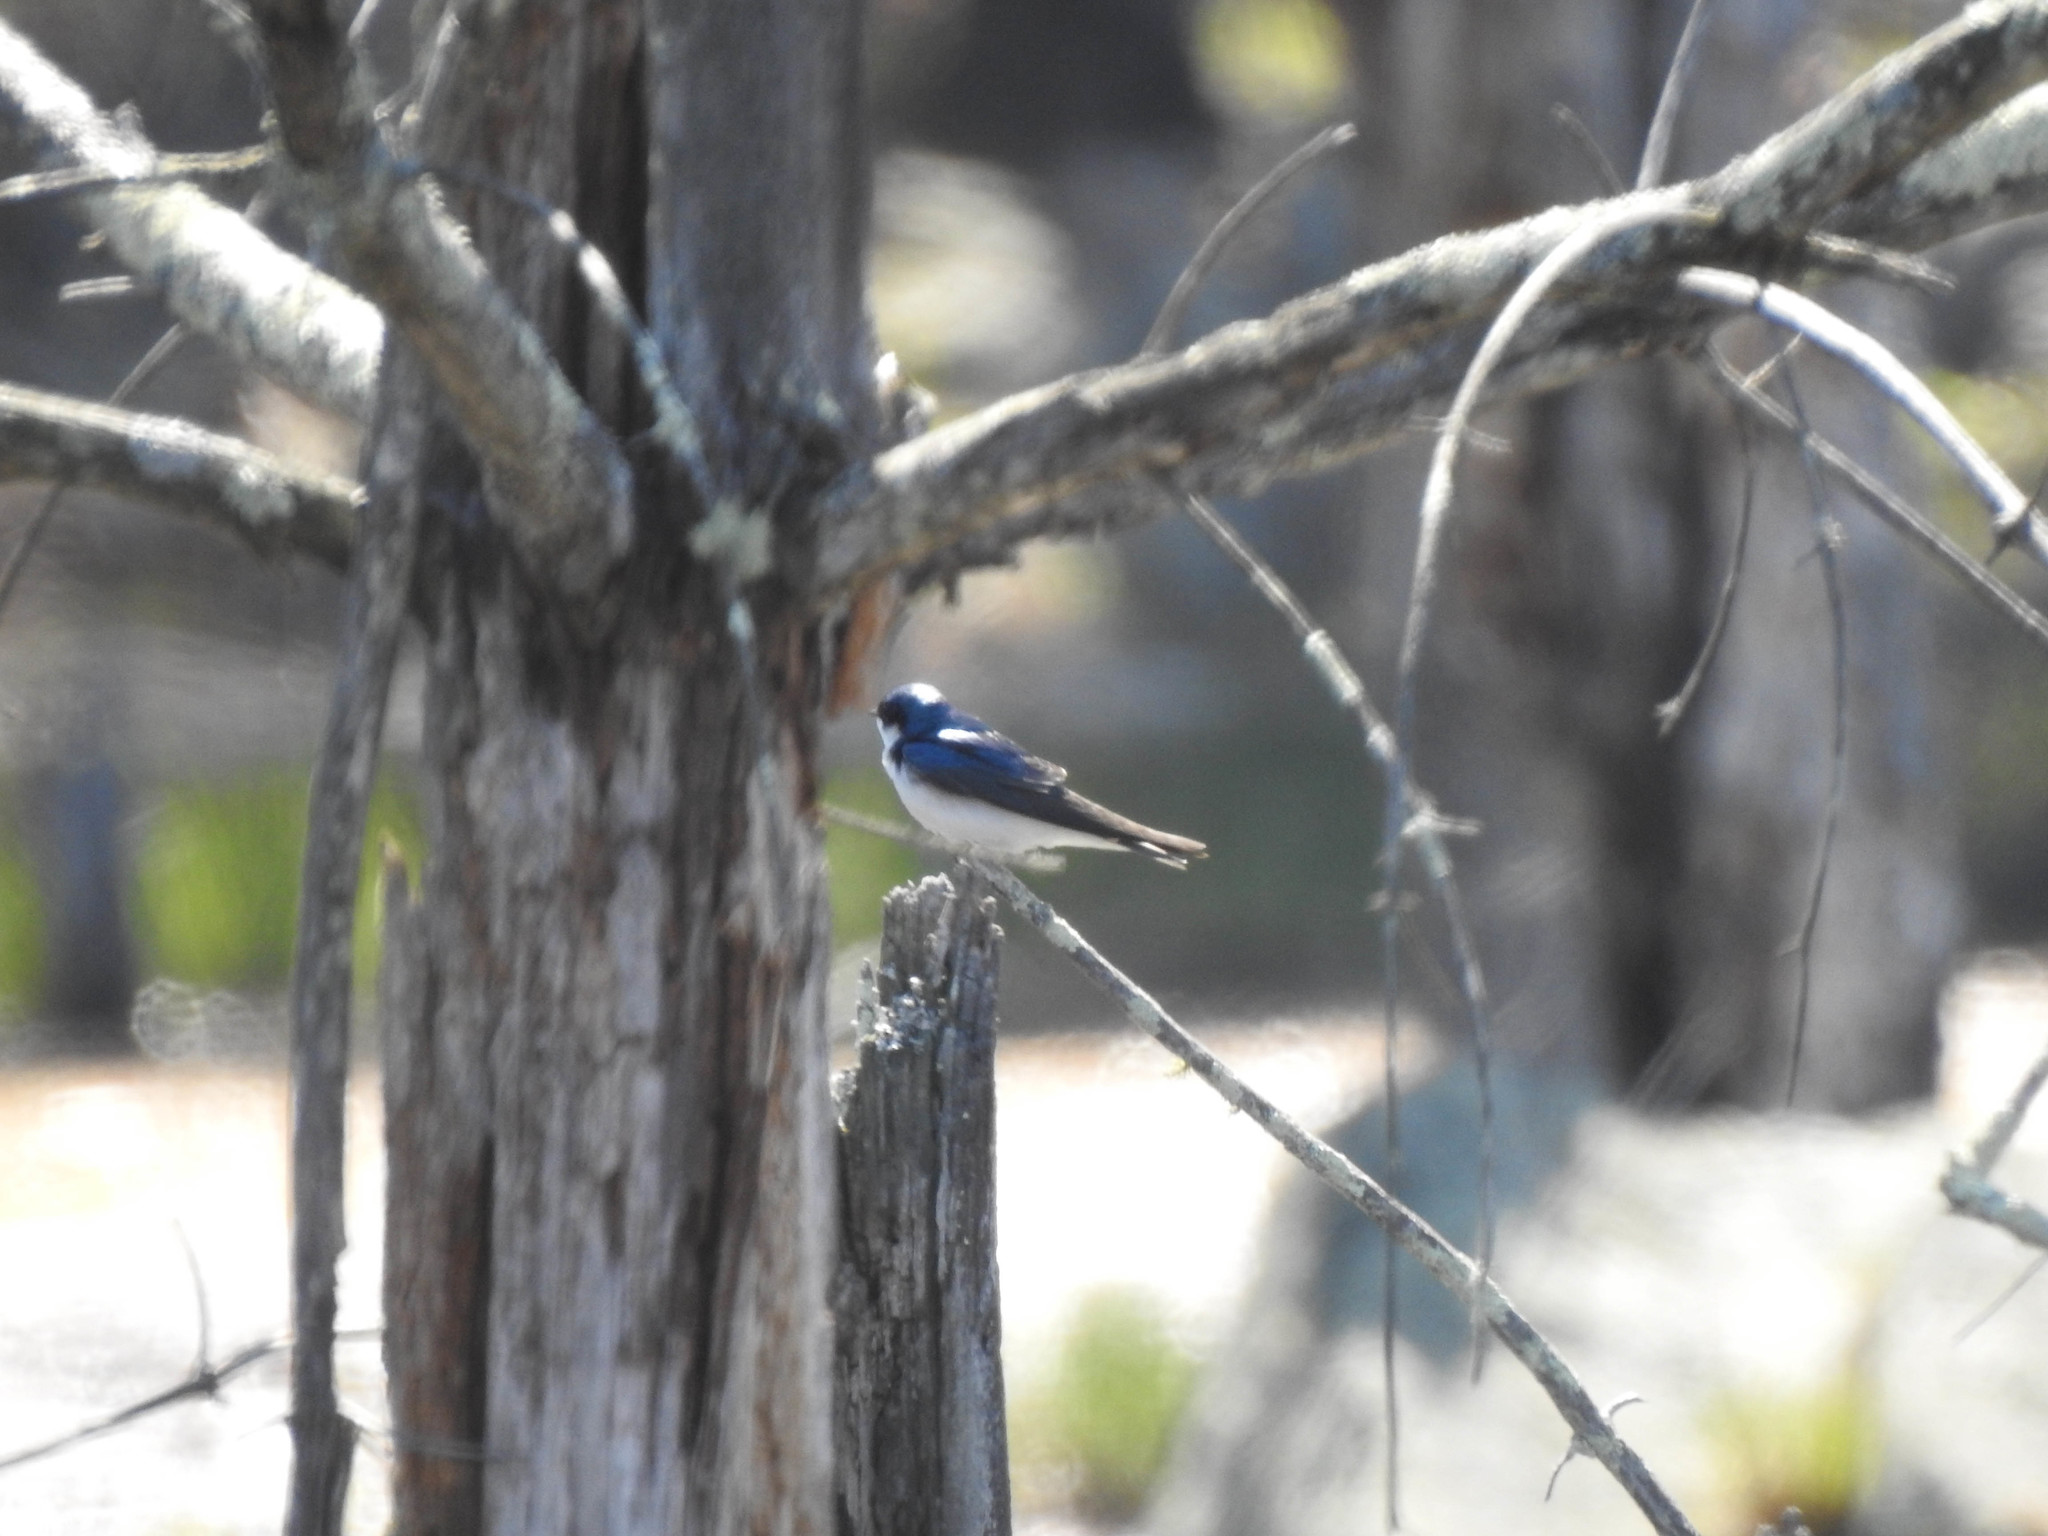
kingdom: Animalia
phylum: Chordata
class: Aves
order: Passeriformes
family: Hirundinidae
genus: Tachycineta
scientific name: Tachycineta bicolor
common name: Tree swallow
